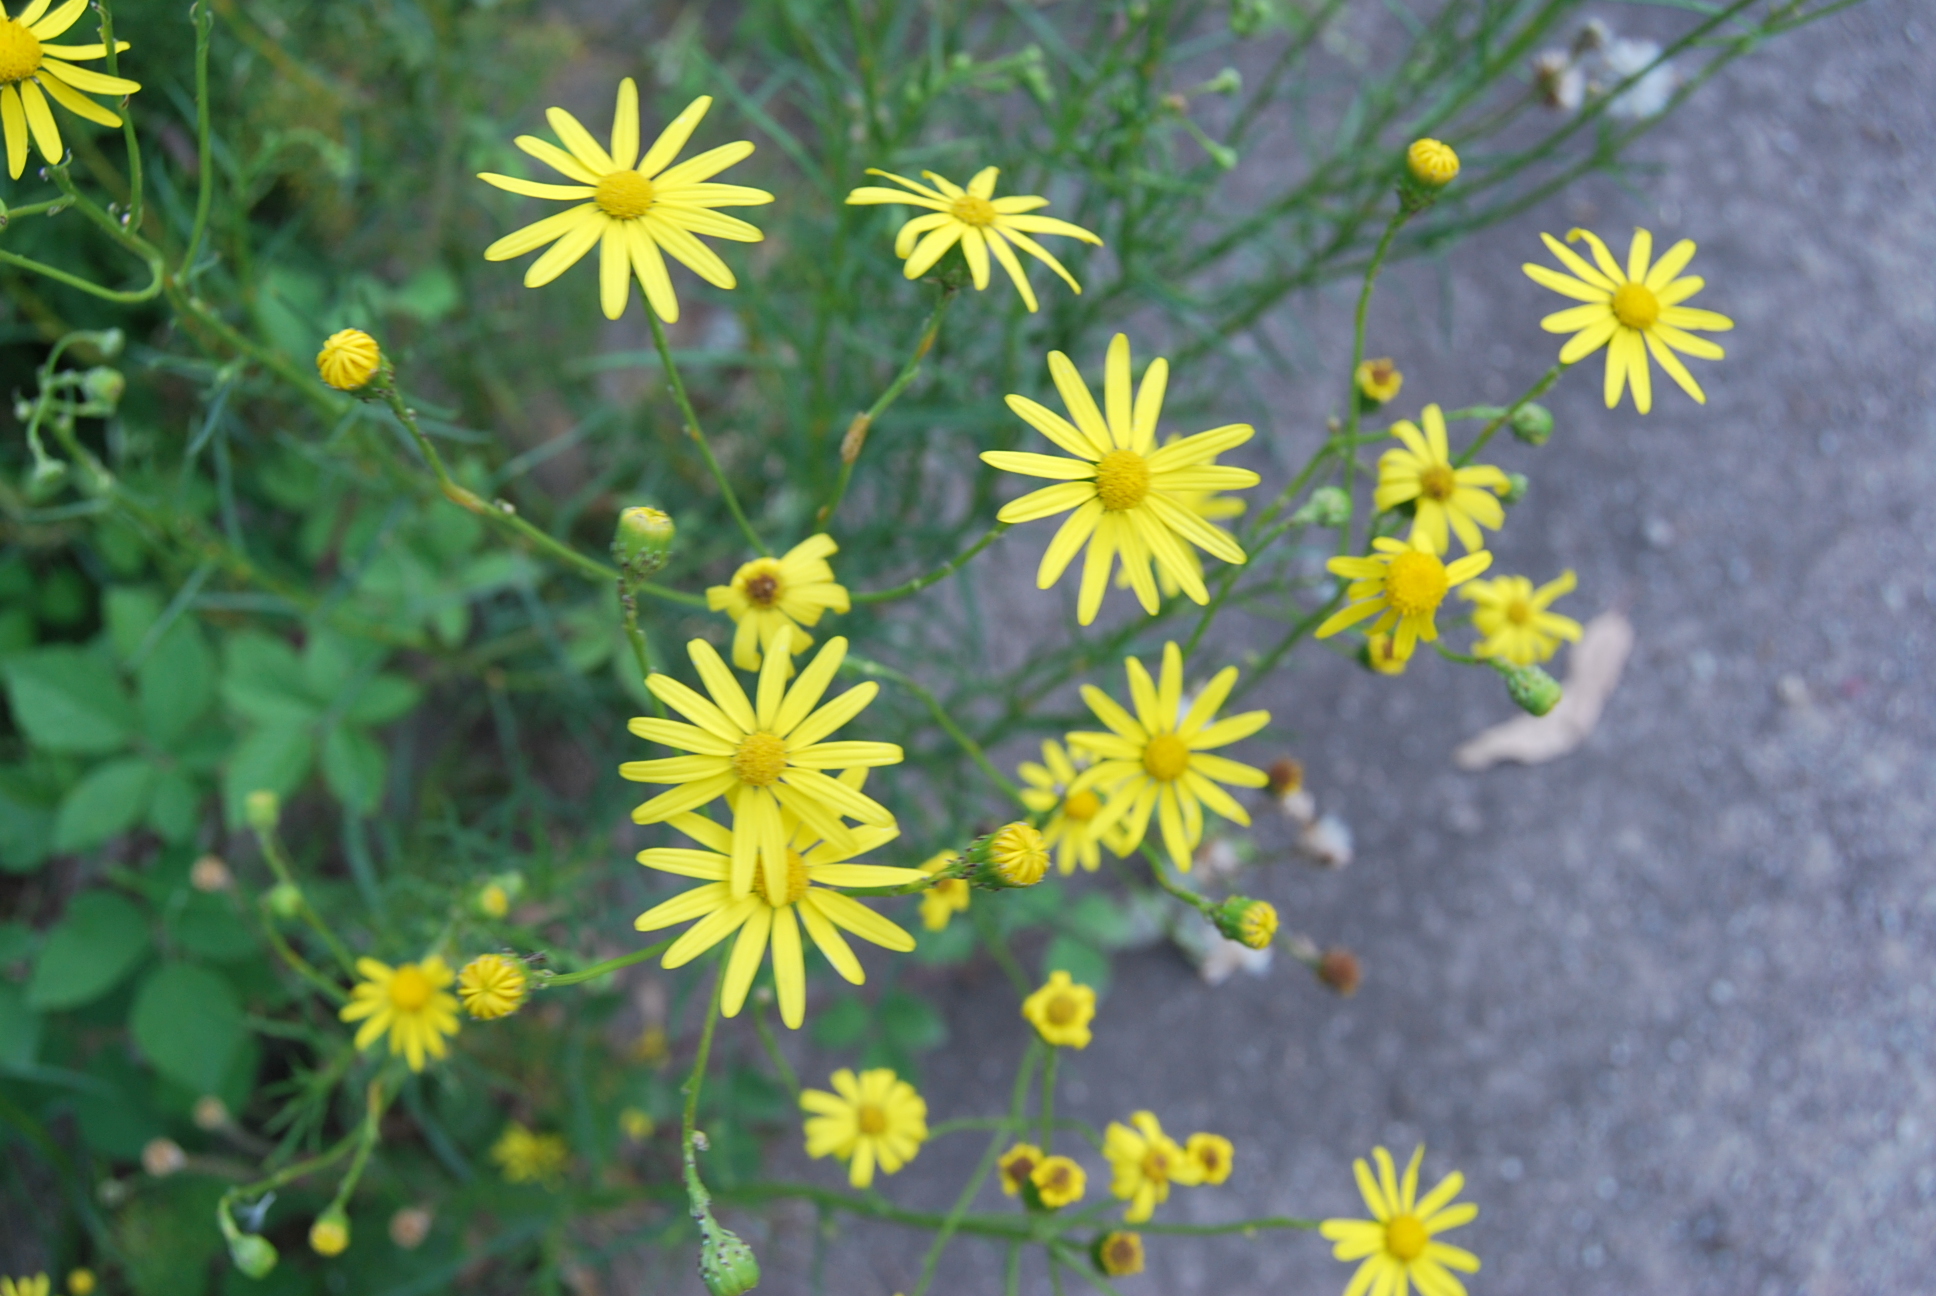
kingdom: Plantae
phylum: Tracheophyta
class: Magnoliopsida
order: Asterales
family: Asteraceae
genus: Senecio
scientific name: Senecio inaequidens
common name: Narrow-leaved ragwort
